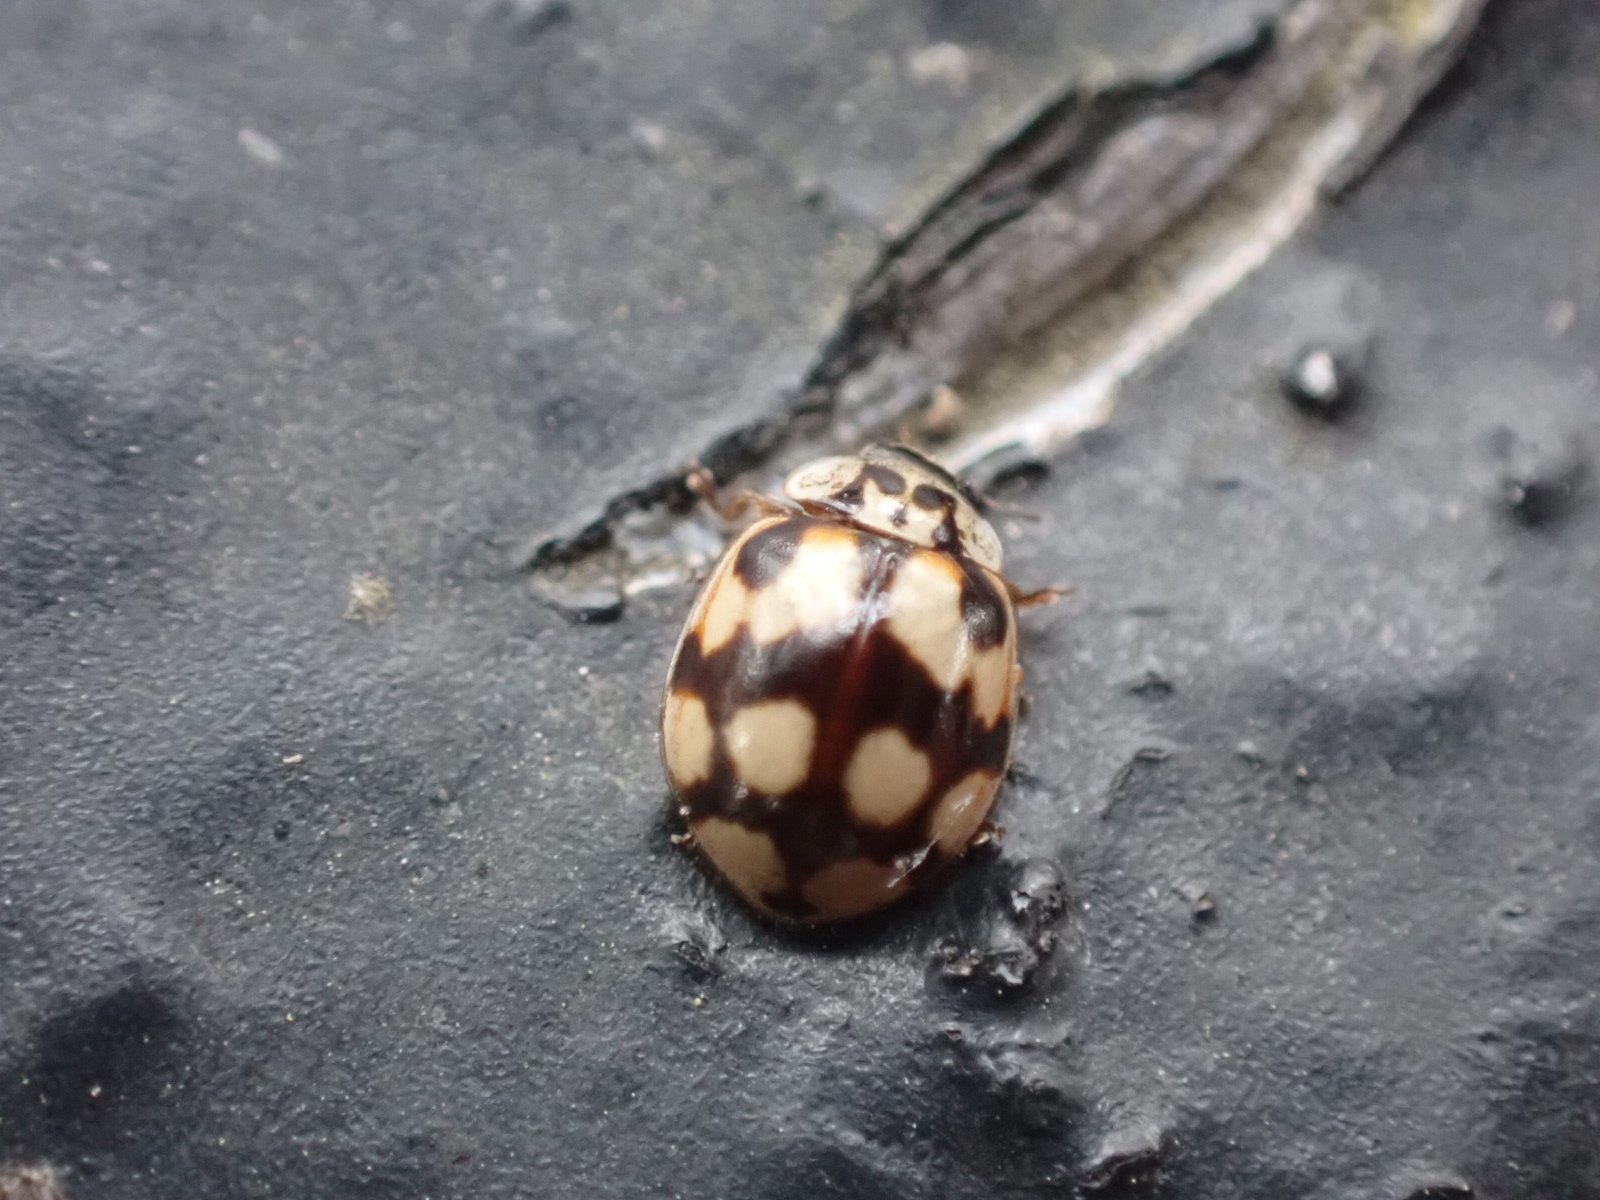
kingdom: Animalia
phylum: Arthropoda
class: Insecta
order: Coleoptera
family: Coccinellidae
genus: Adalia
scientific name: Adalia decempunctata
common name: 10-spot ladybird
